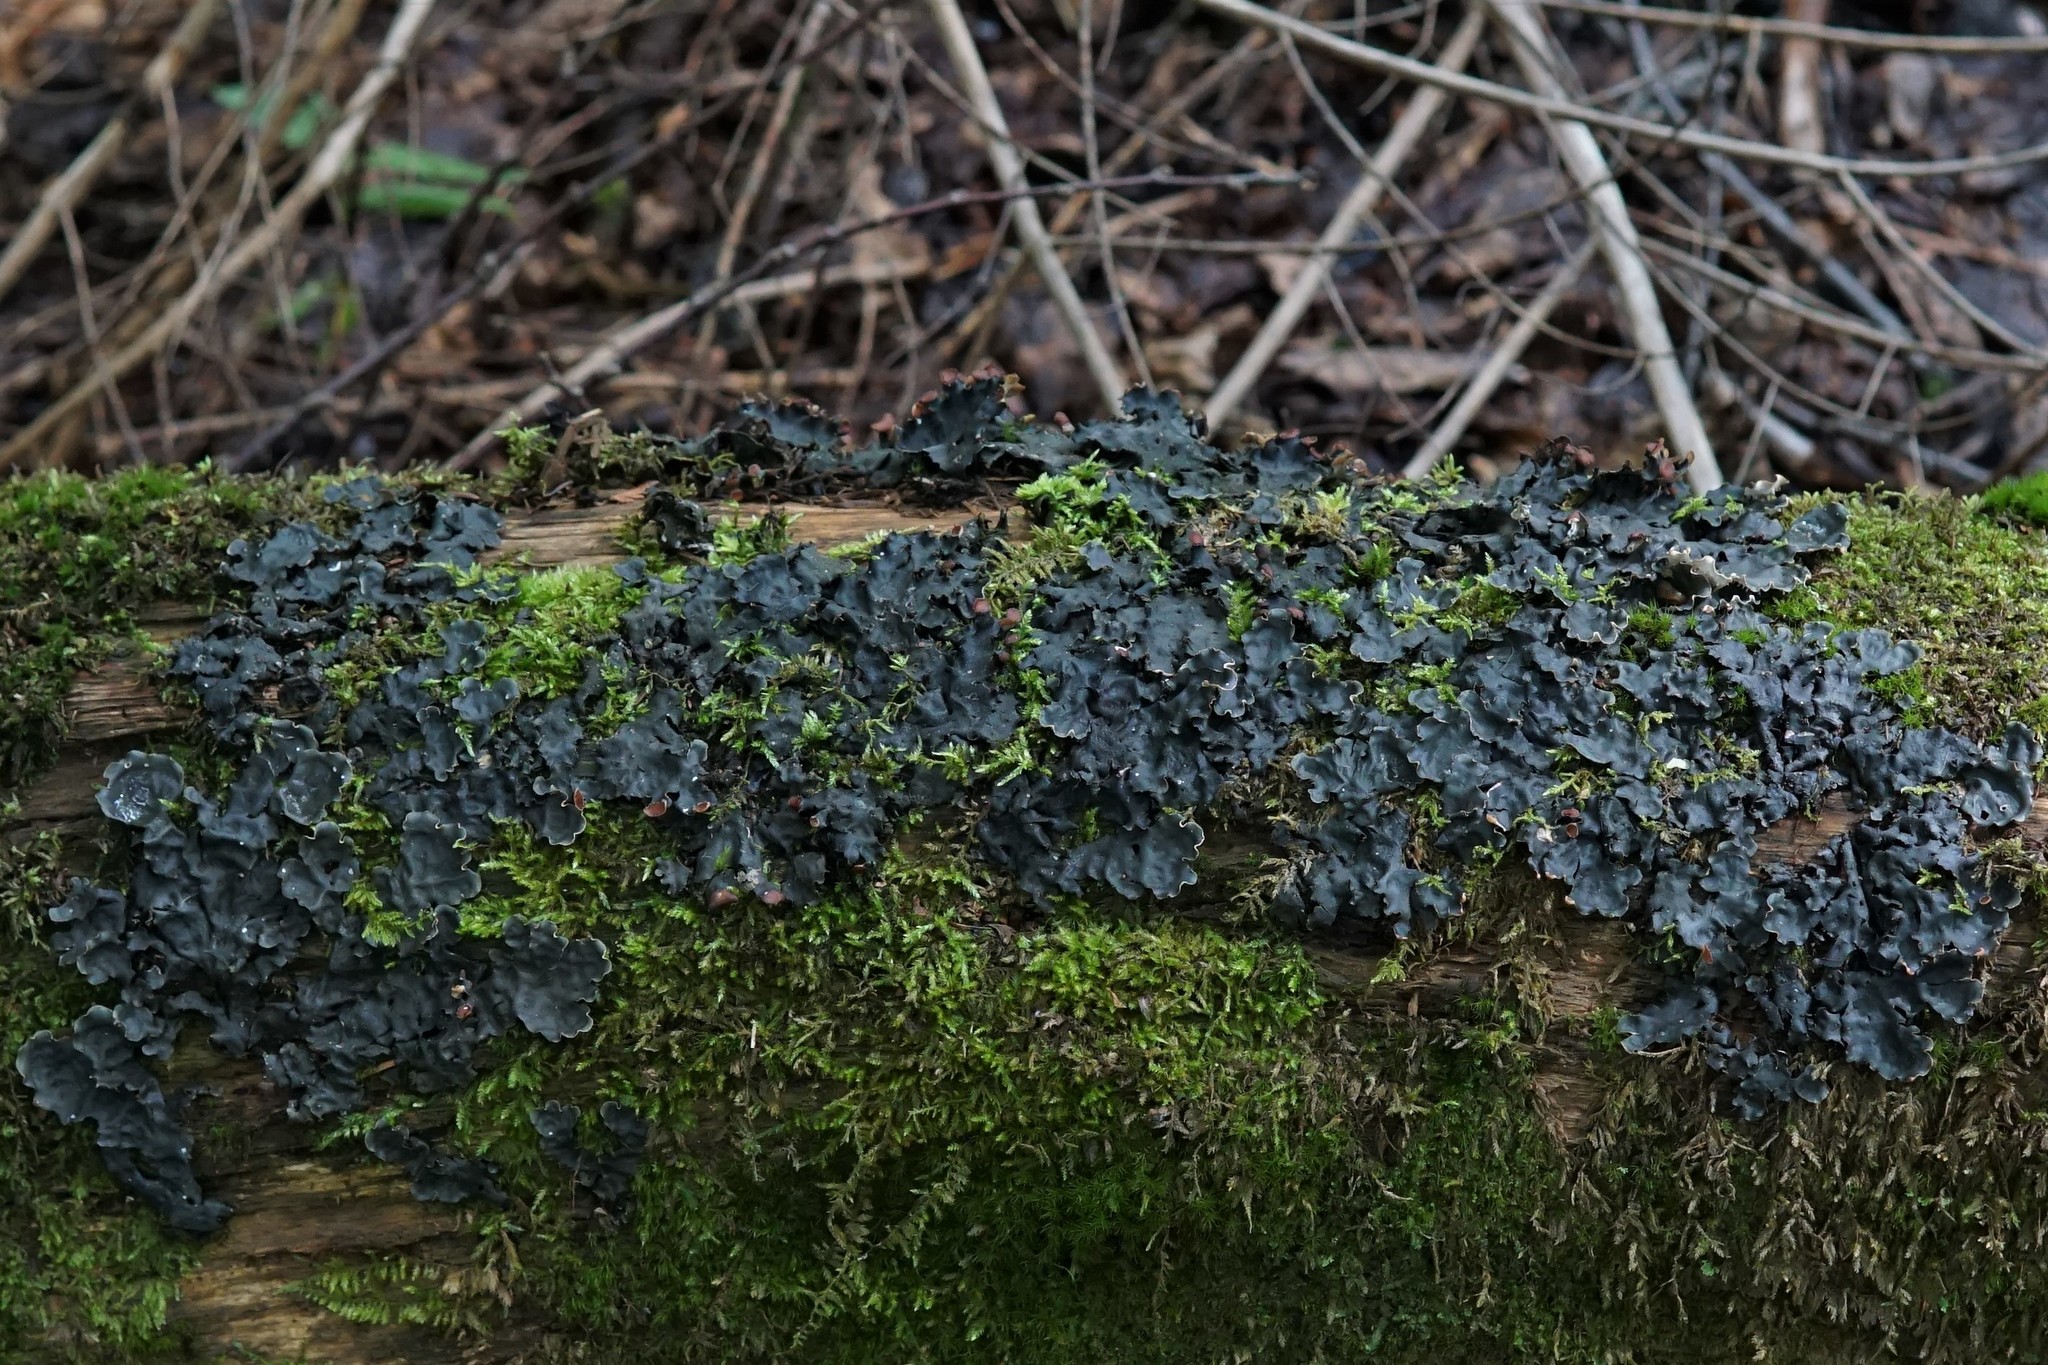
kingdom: Fungi
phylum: Ascomycota
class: Lecanoromycetes
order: Peltigerales
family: Peltigeraceae
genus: Peltigera
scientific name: Peltigera horizontalis
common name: Flat fruited pelt
